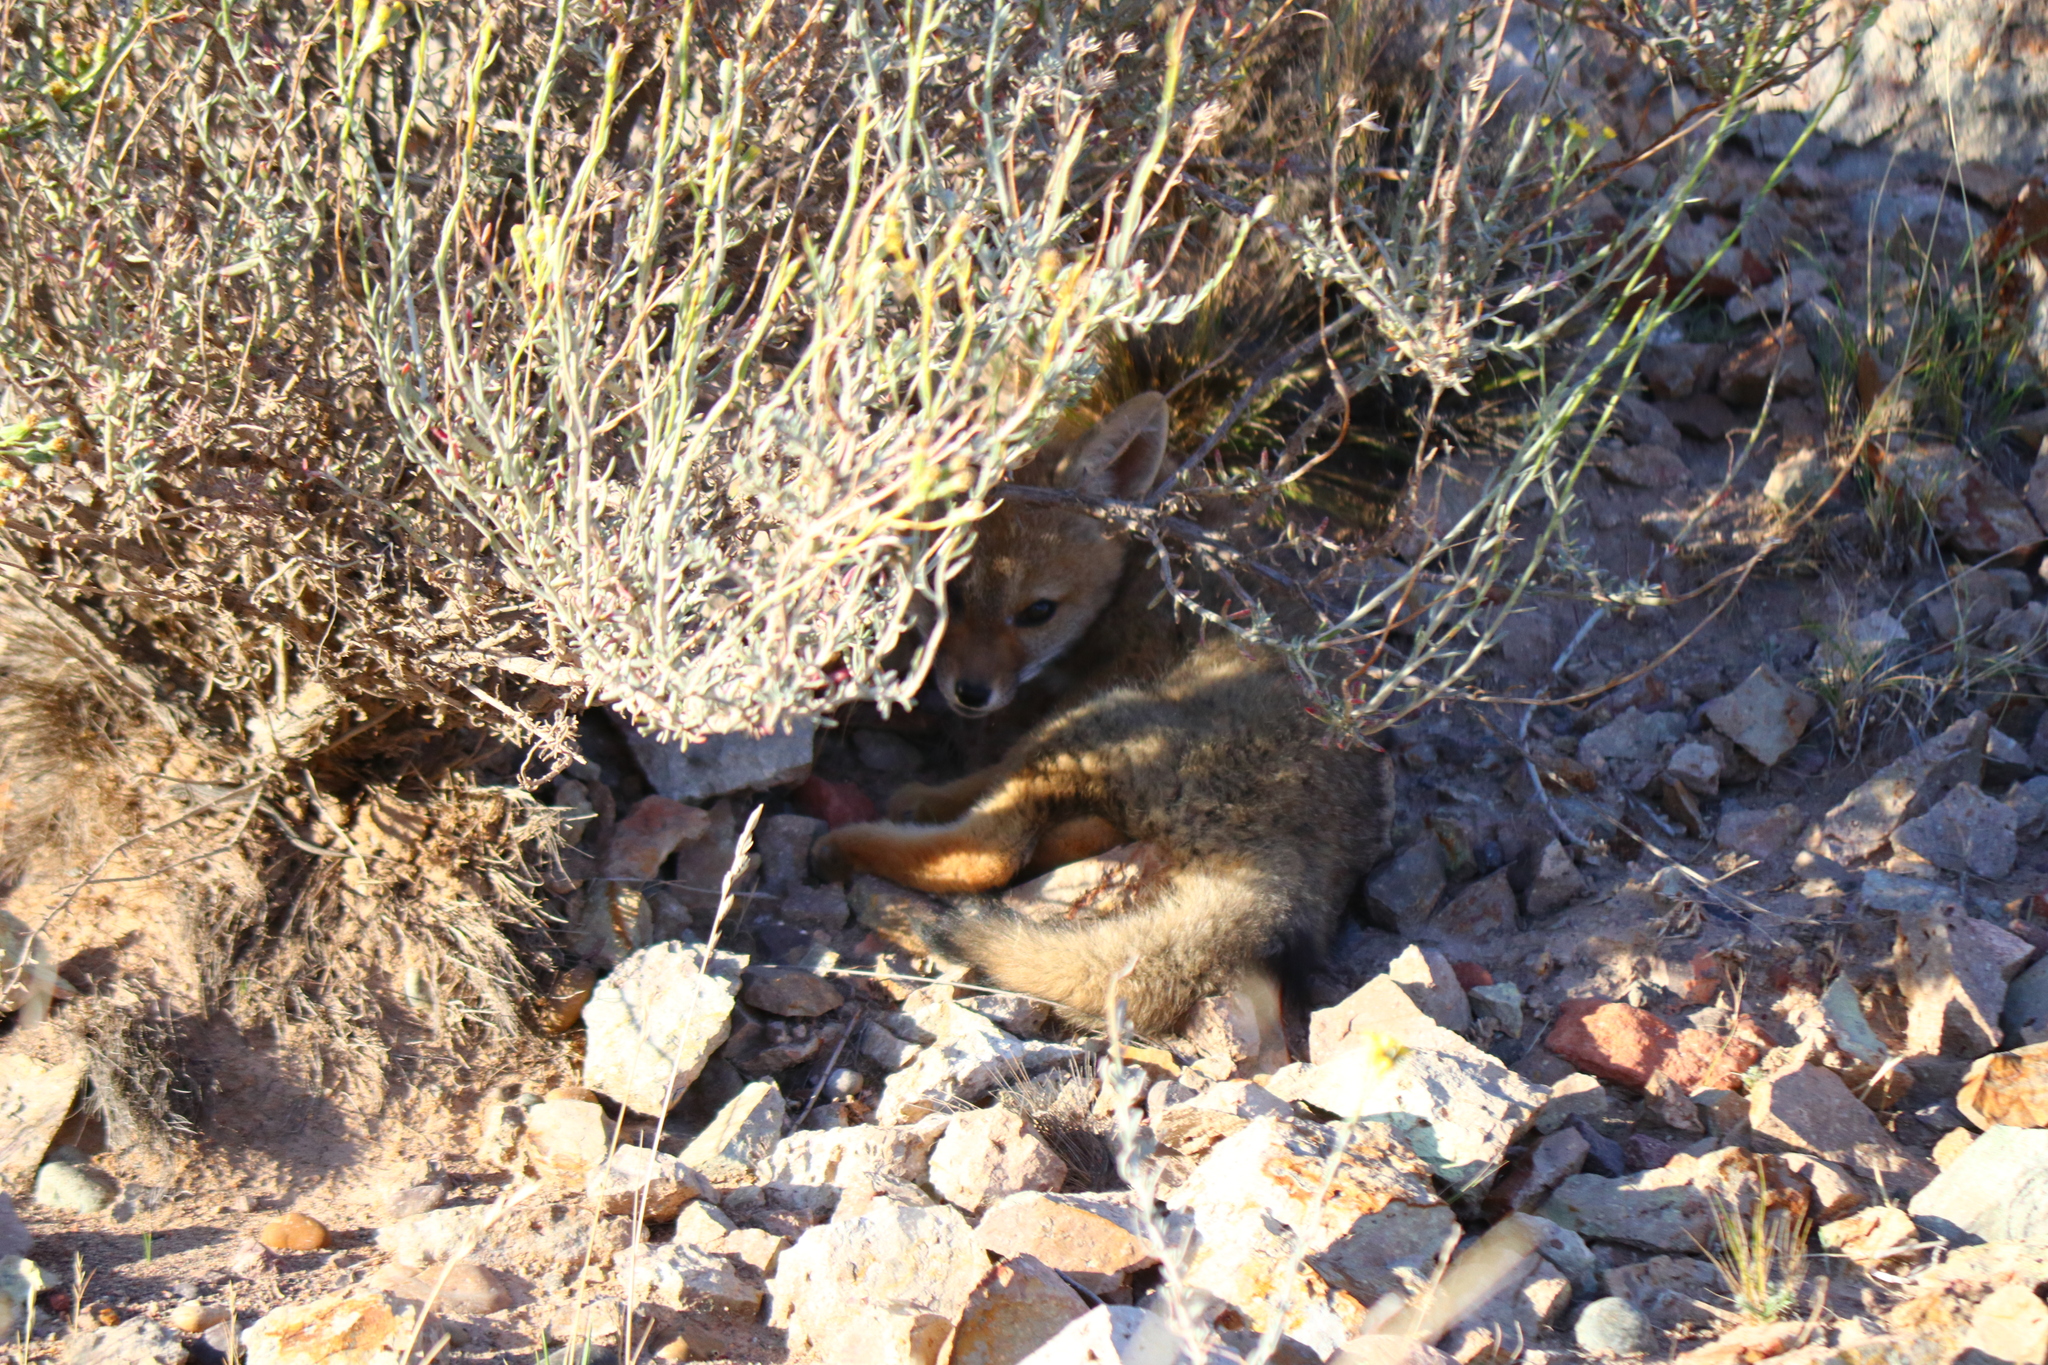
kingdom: Animalia
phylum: Chordata
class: Mammalia
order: Carnivora
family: Canidae
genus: Lycalopex
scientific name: Lycalopex culpaeus
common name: Culpeo
